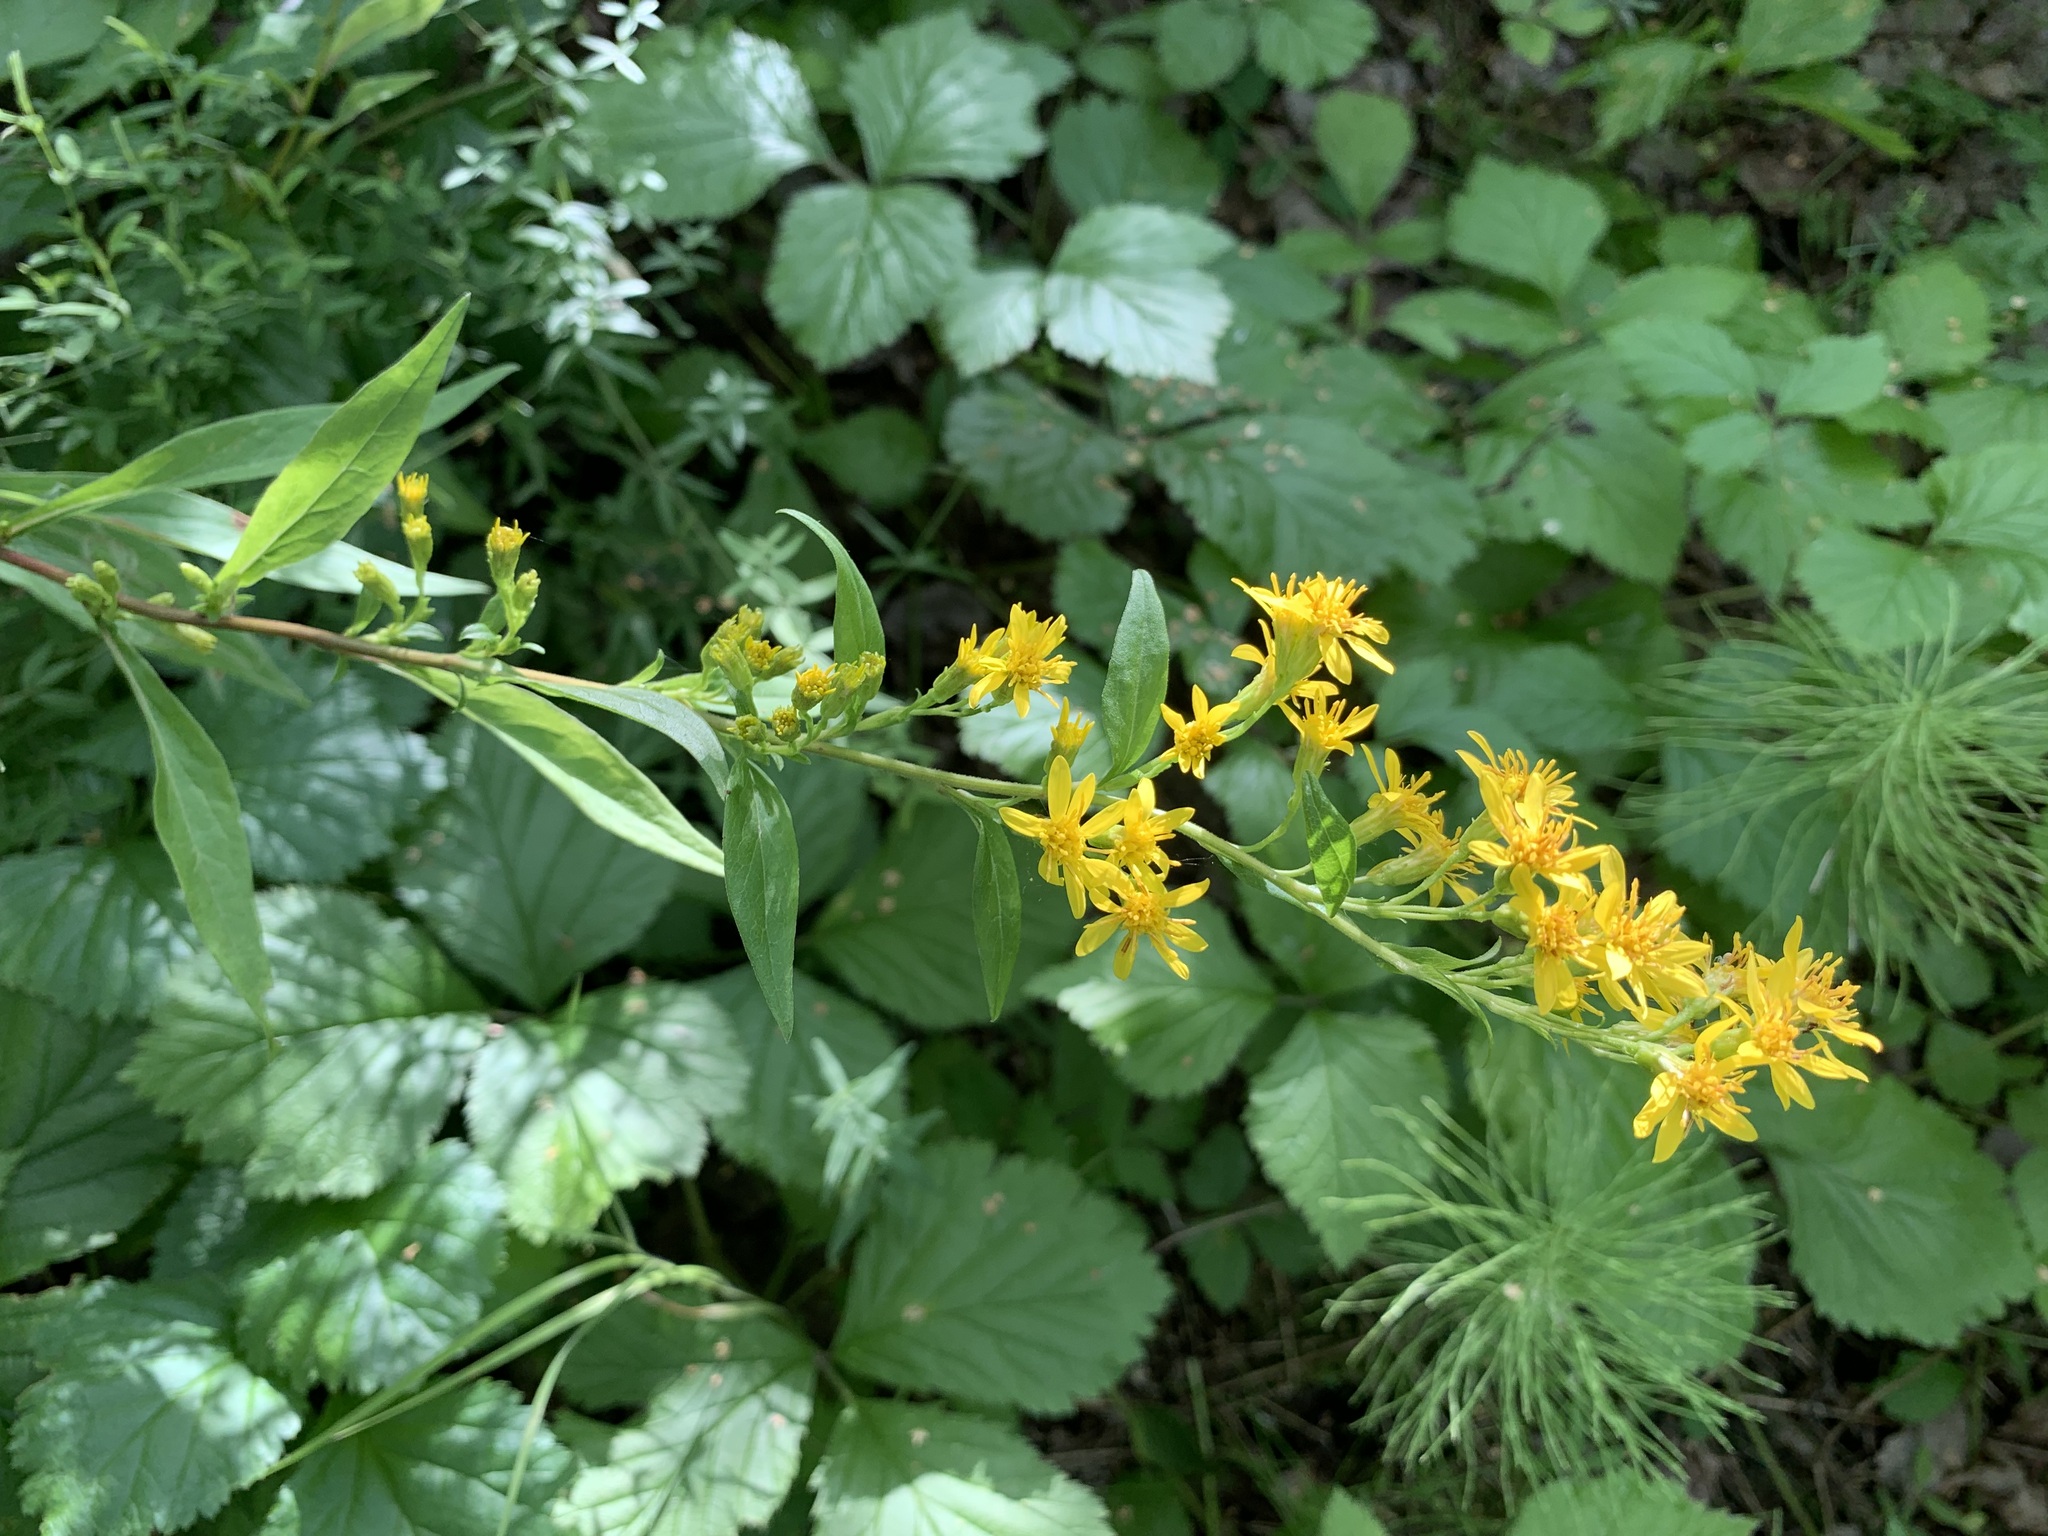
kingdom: Plantae
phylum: Tracheophyta
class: Magnoliopsida
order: Asterales
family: Asteraceae
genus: Solidago
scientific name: Solidago virgaurea
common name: Goldenrod
